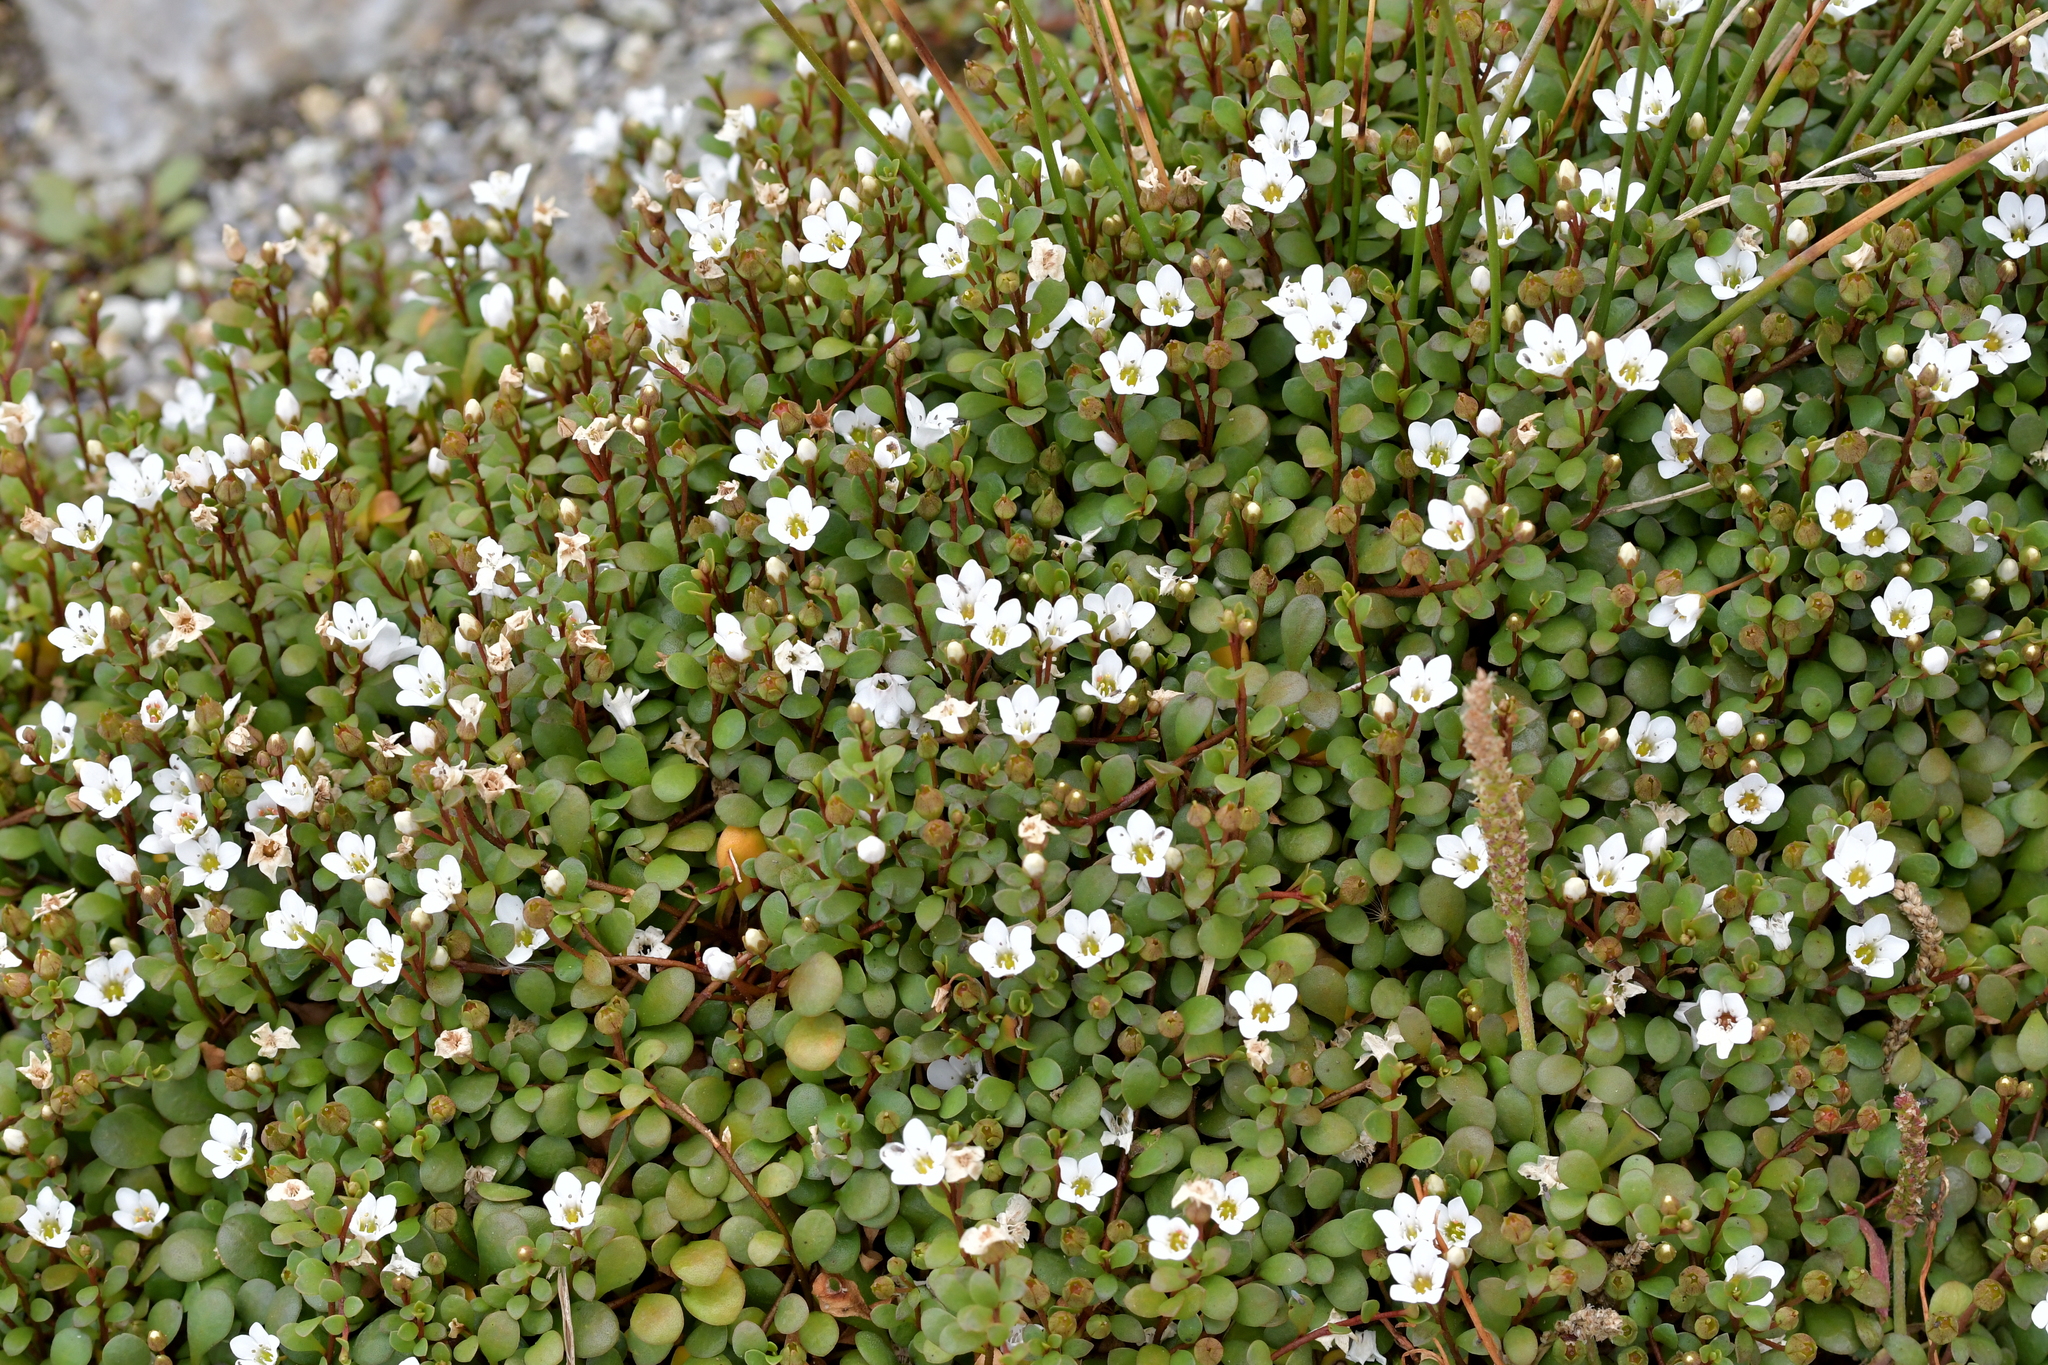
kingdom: Plantae
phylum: Tracheophyta
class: Magnoliopsida
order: Ericales
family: Primulaceae
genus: Samolus
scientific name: Samolus repens
